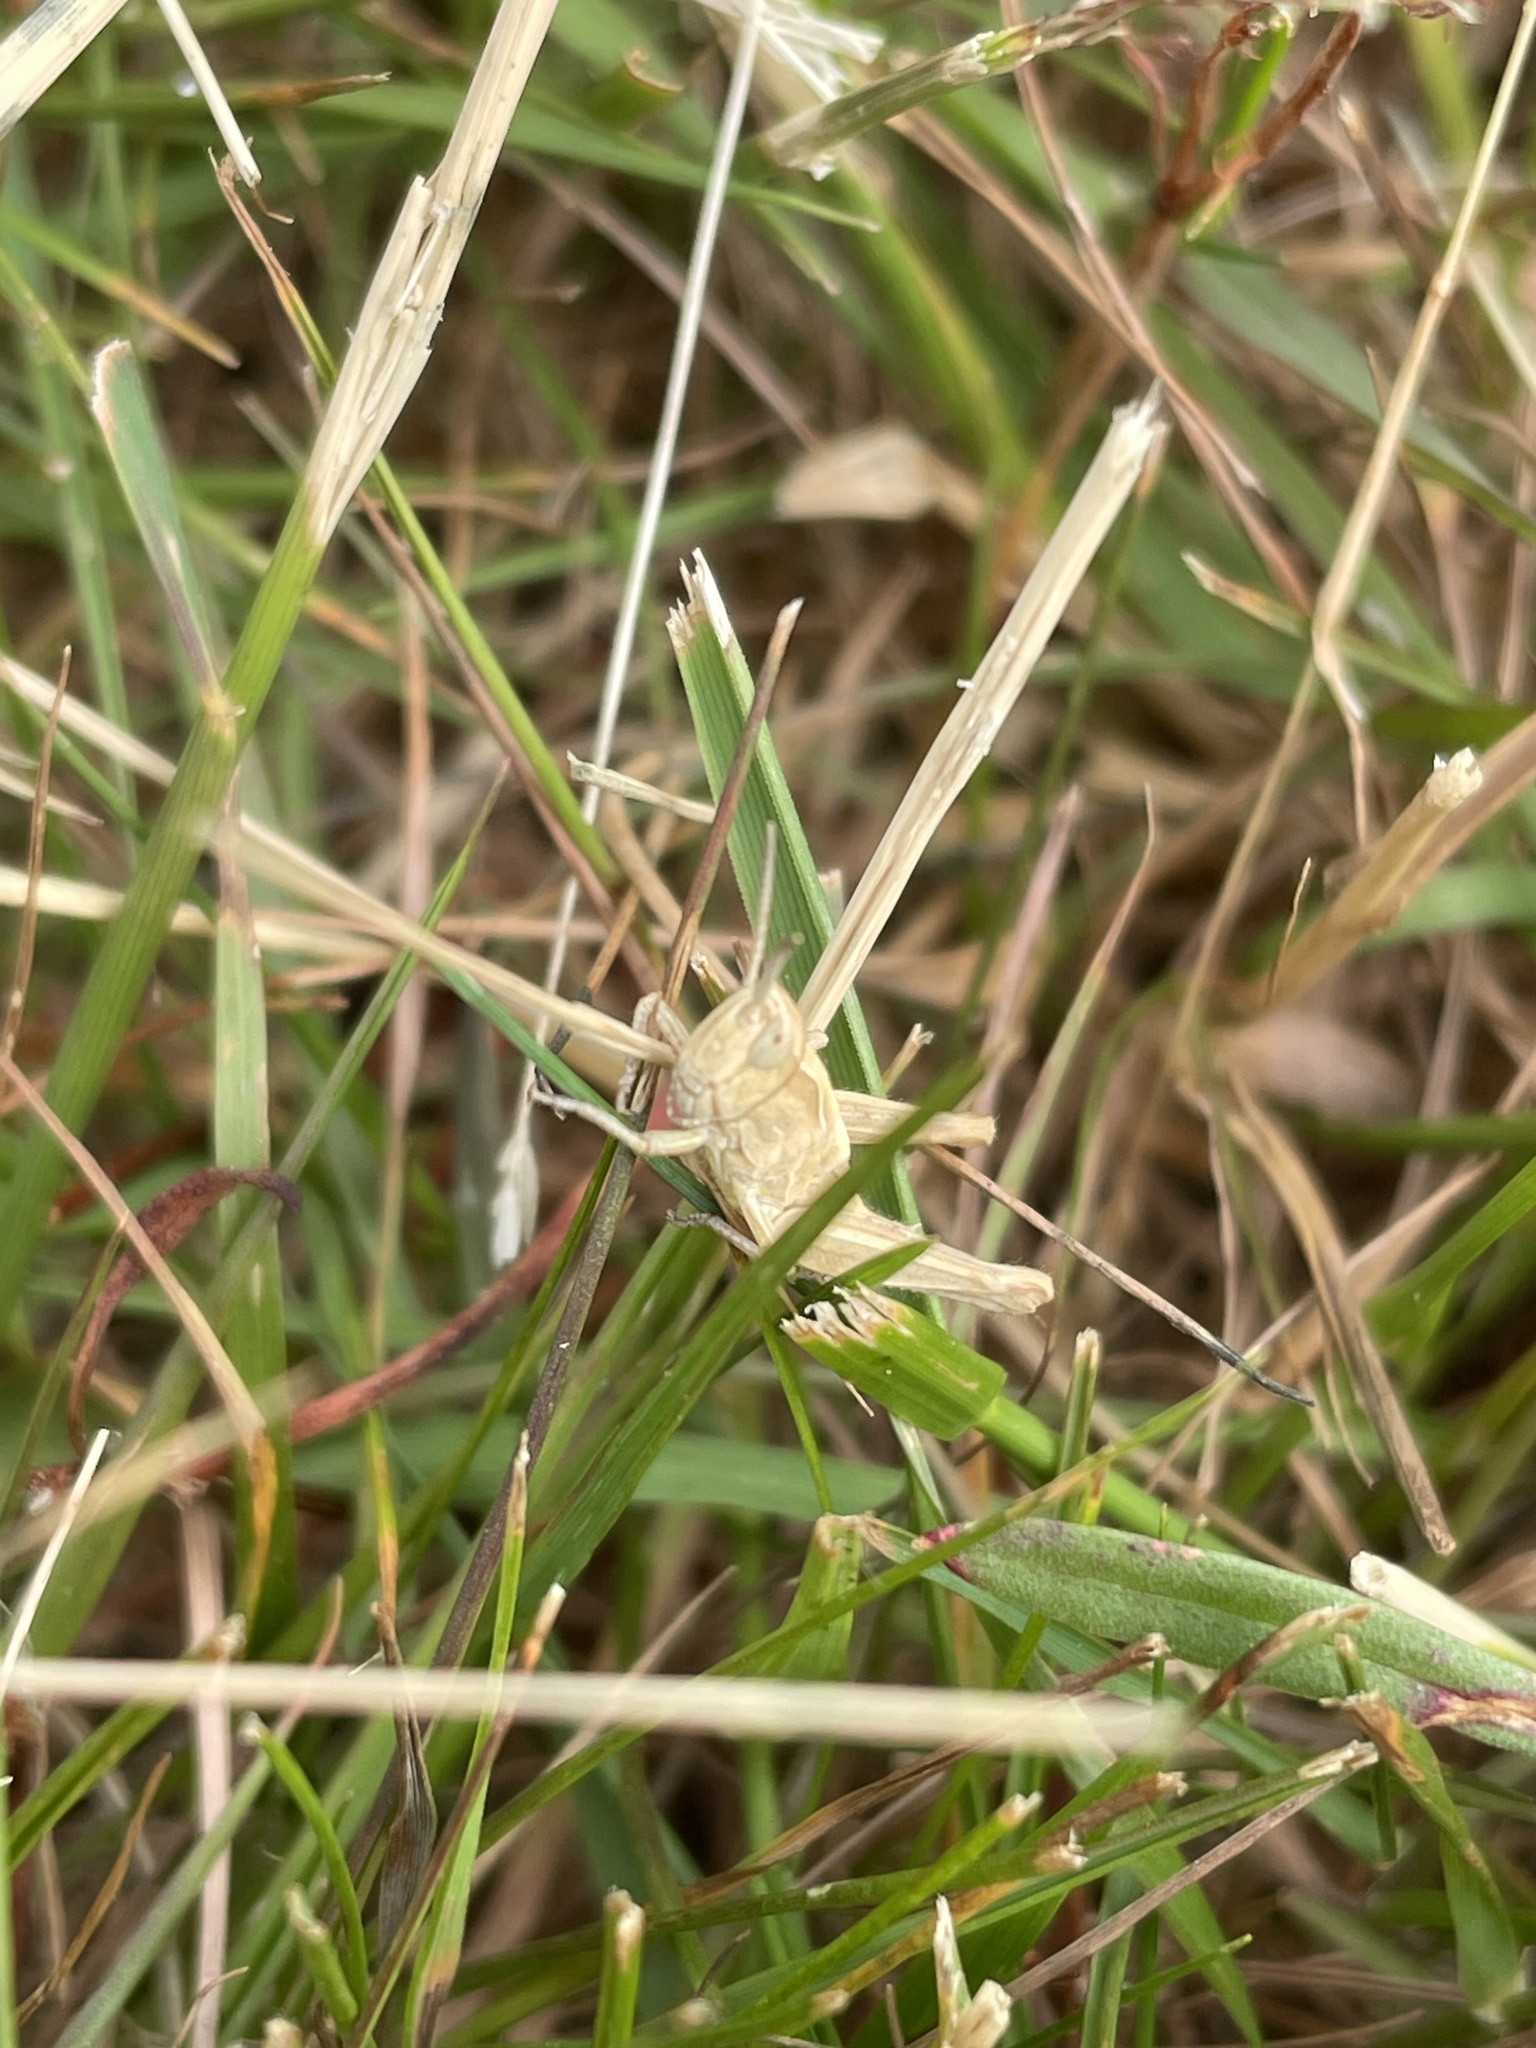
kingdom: Animalia
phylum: Arthropoda
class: Insecta
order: Orthoptera
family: Acrididae
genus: Chorthippus
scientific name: Chorthippus brunneus
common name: Field grasshopper
